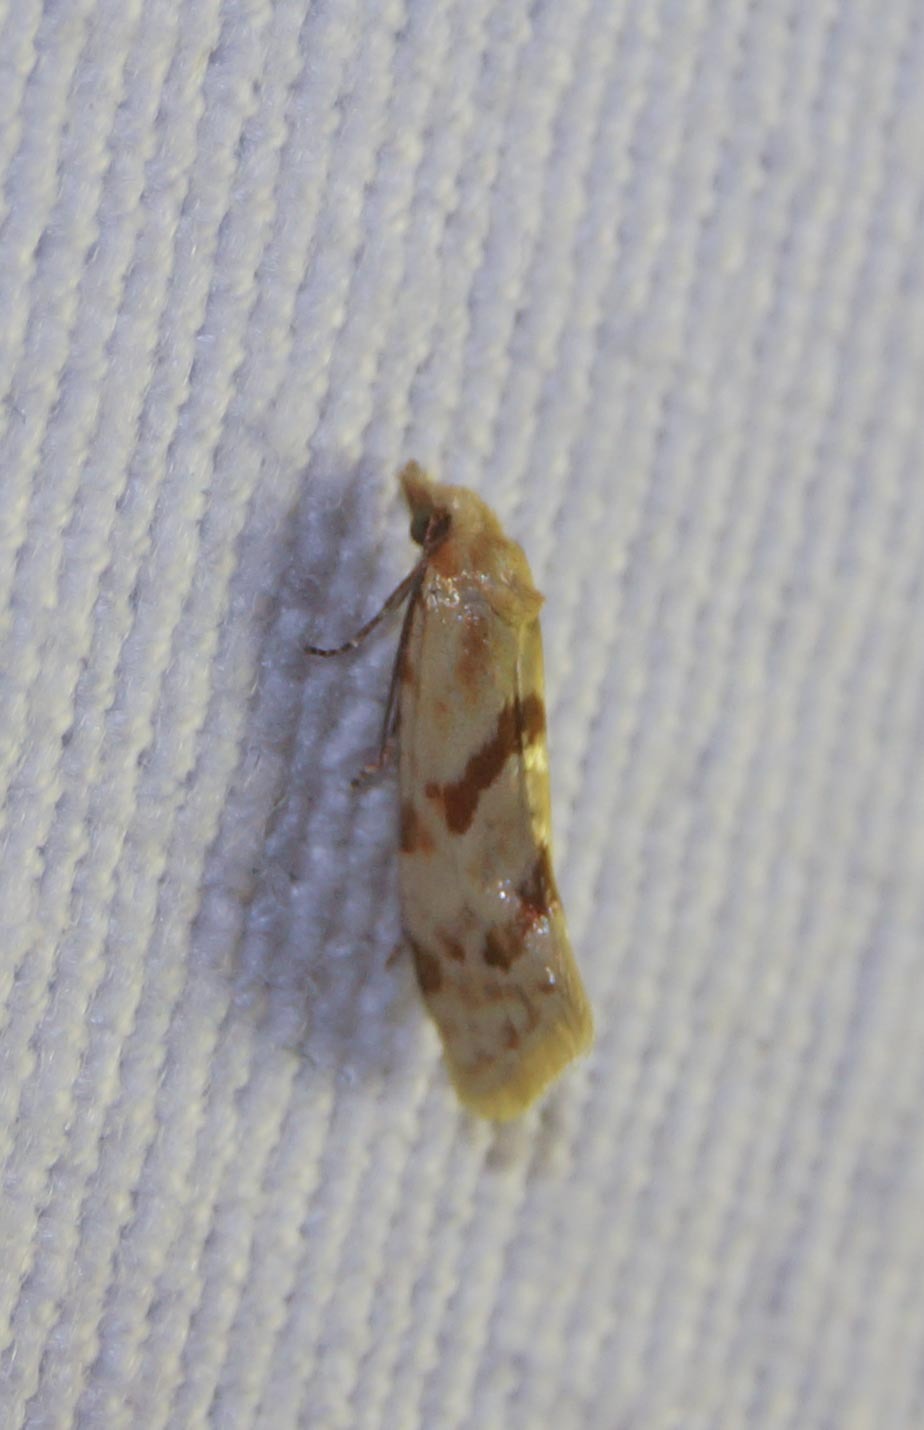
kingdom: Animalia
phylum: Arthropoda
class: Insecta
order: Lepidoptera
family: Tortricidae
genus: Aethes
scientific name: Aethes smeathmanniana
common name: Yarrow conch
